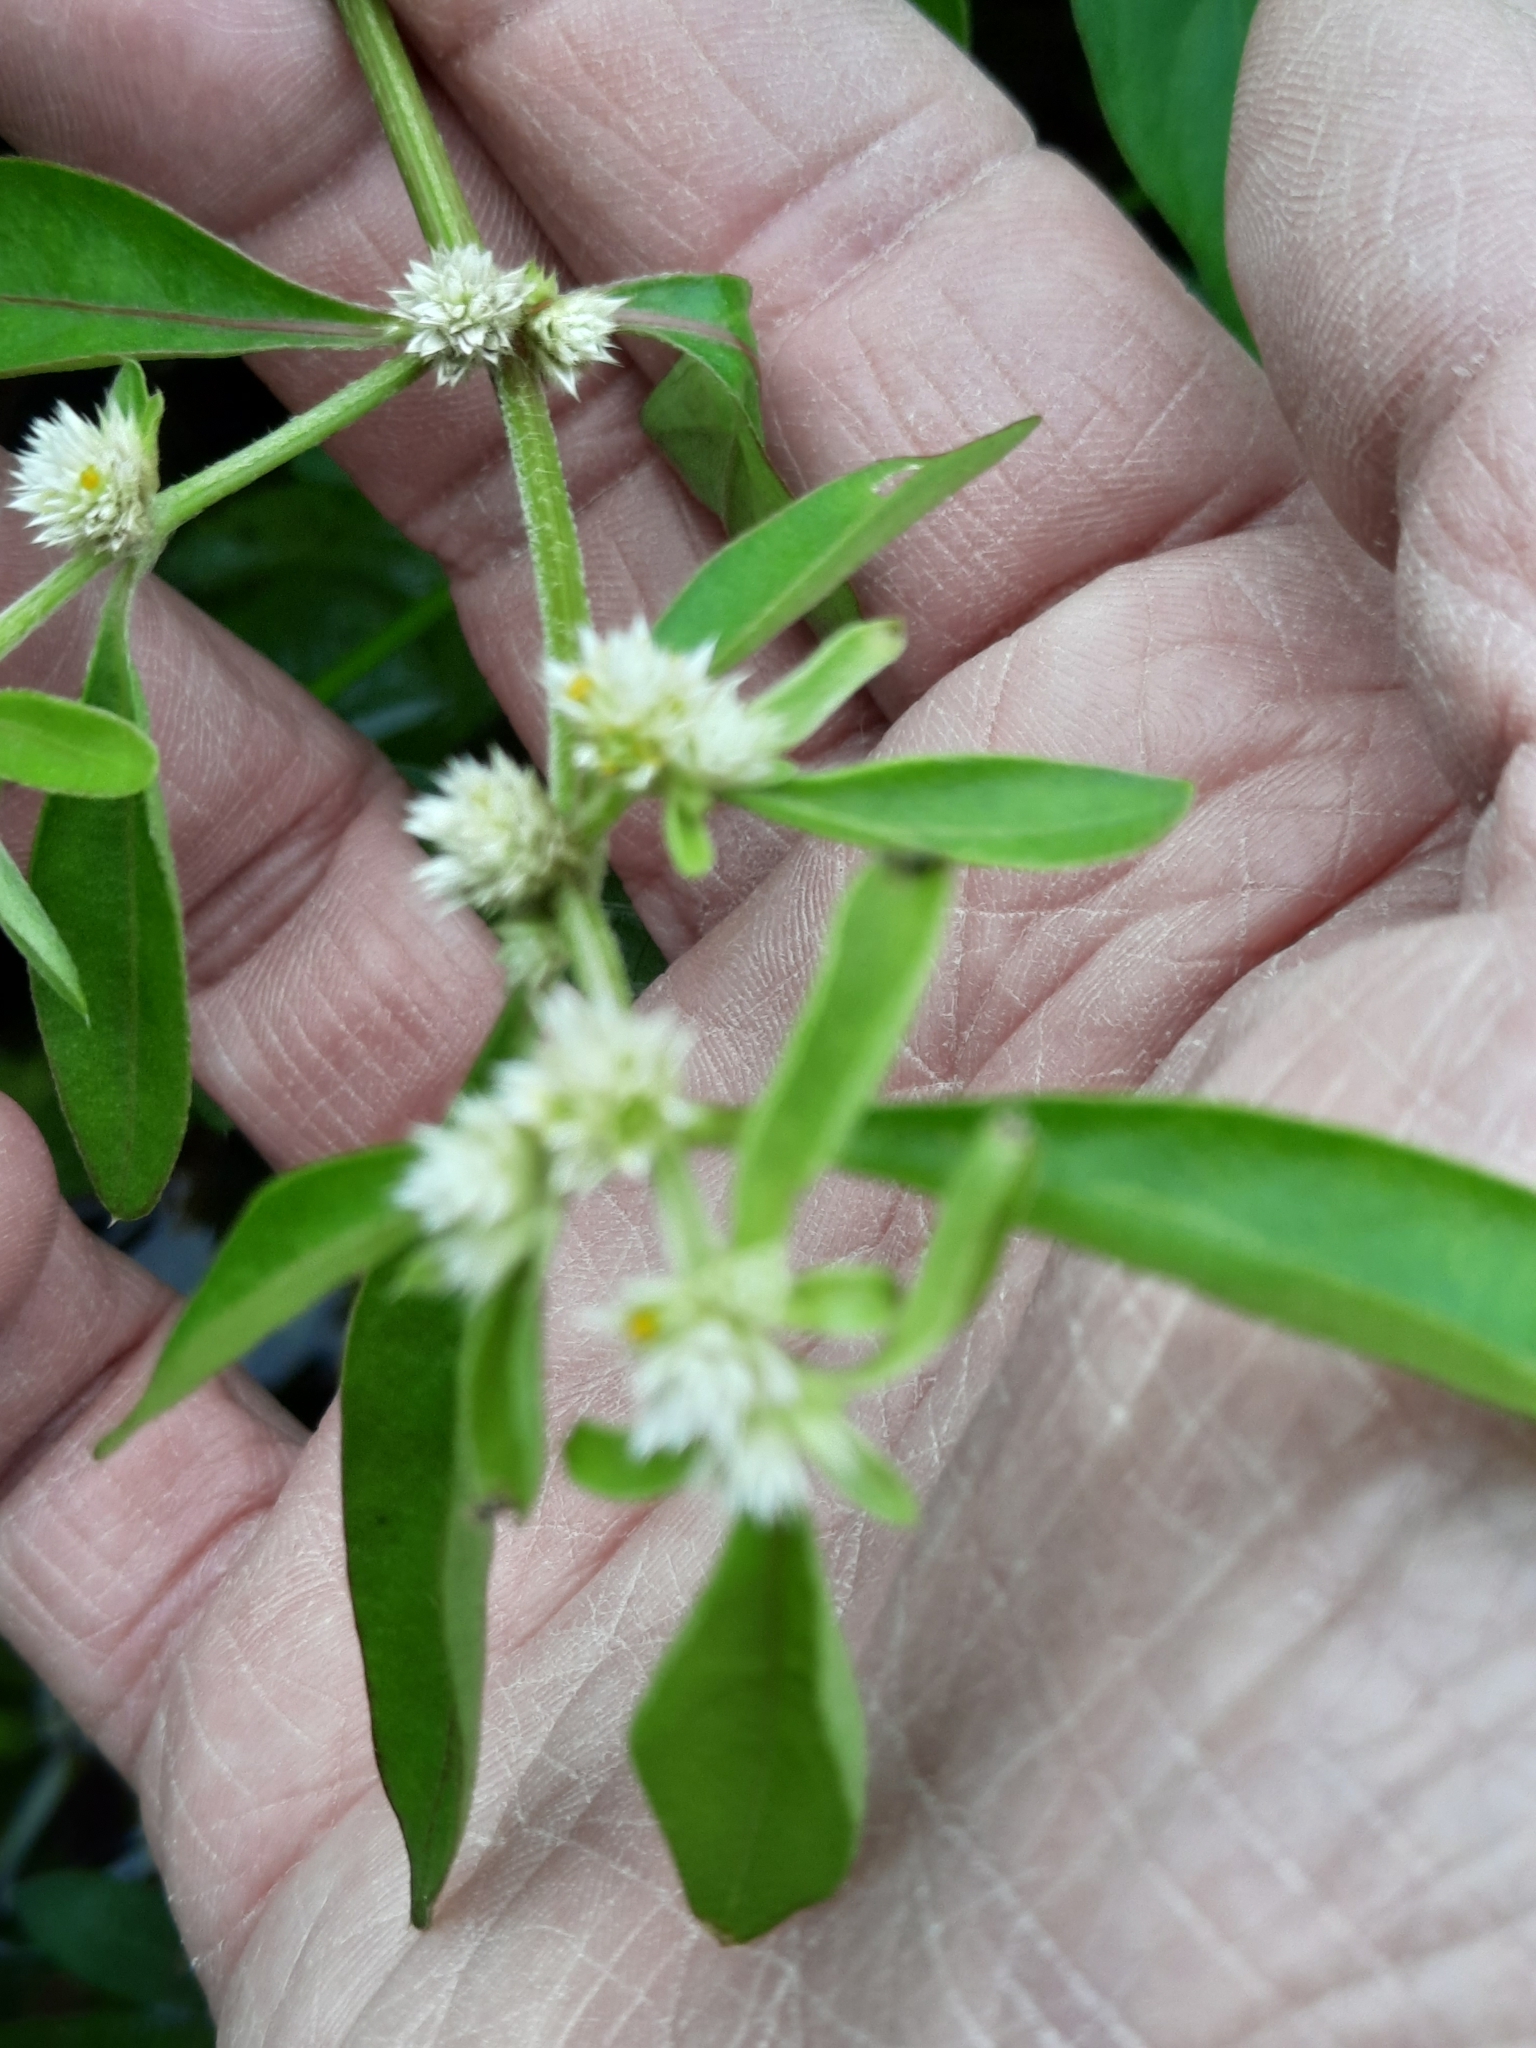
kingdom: Plantae
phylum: Tracheophyta
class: Magnoliopsida
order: Caryophyllales
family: Amaranthaceae
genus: Alternanthera
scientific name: Alternanthera ficoidea
